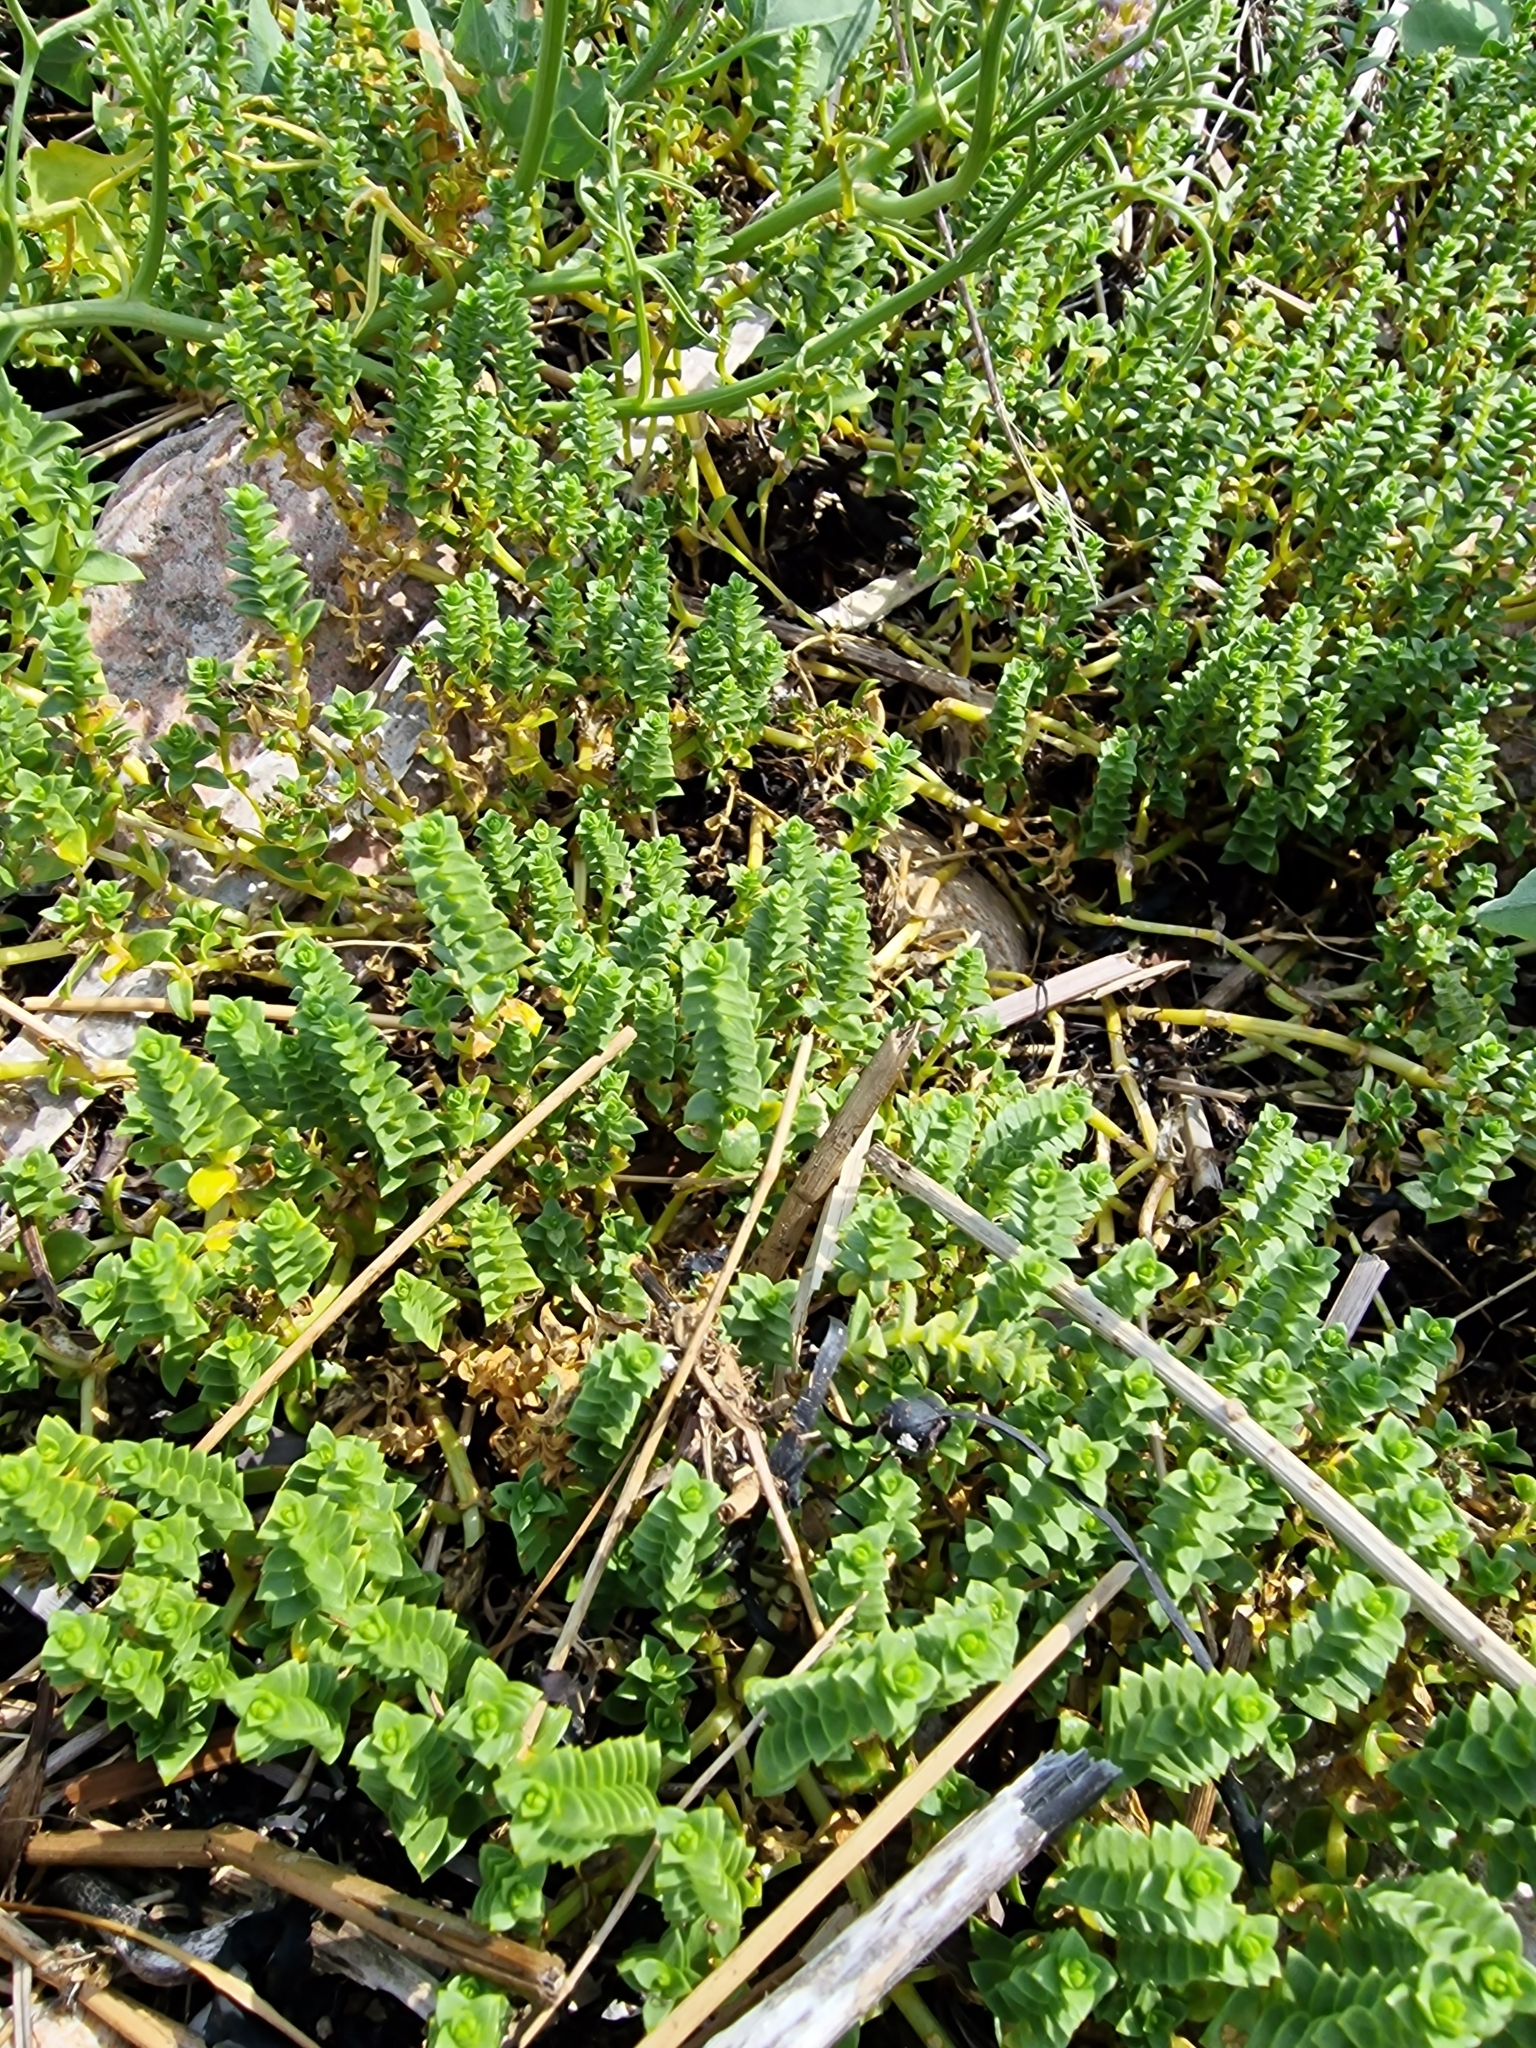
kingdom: Plantae
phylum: Tracheophyta
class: Magnoliopsida
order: Caryophyllales
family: Caryophyllaceae
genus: Honckenya
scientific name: Honckenya peploides
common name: Sea sandwort
